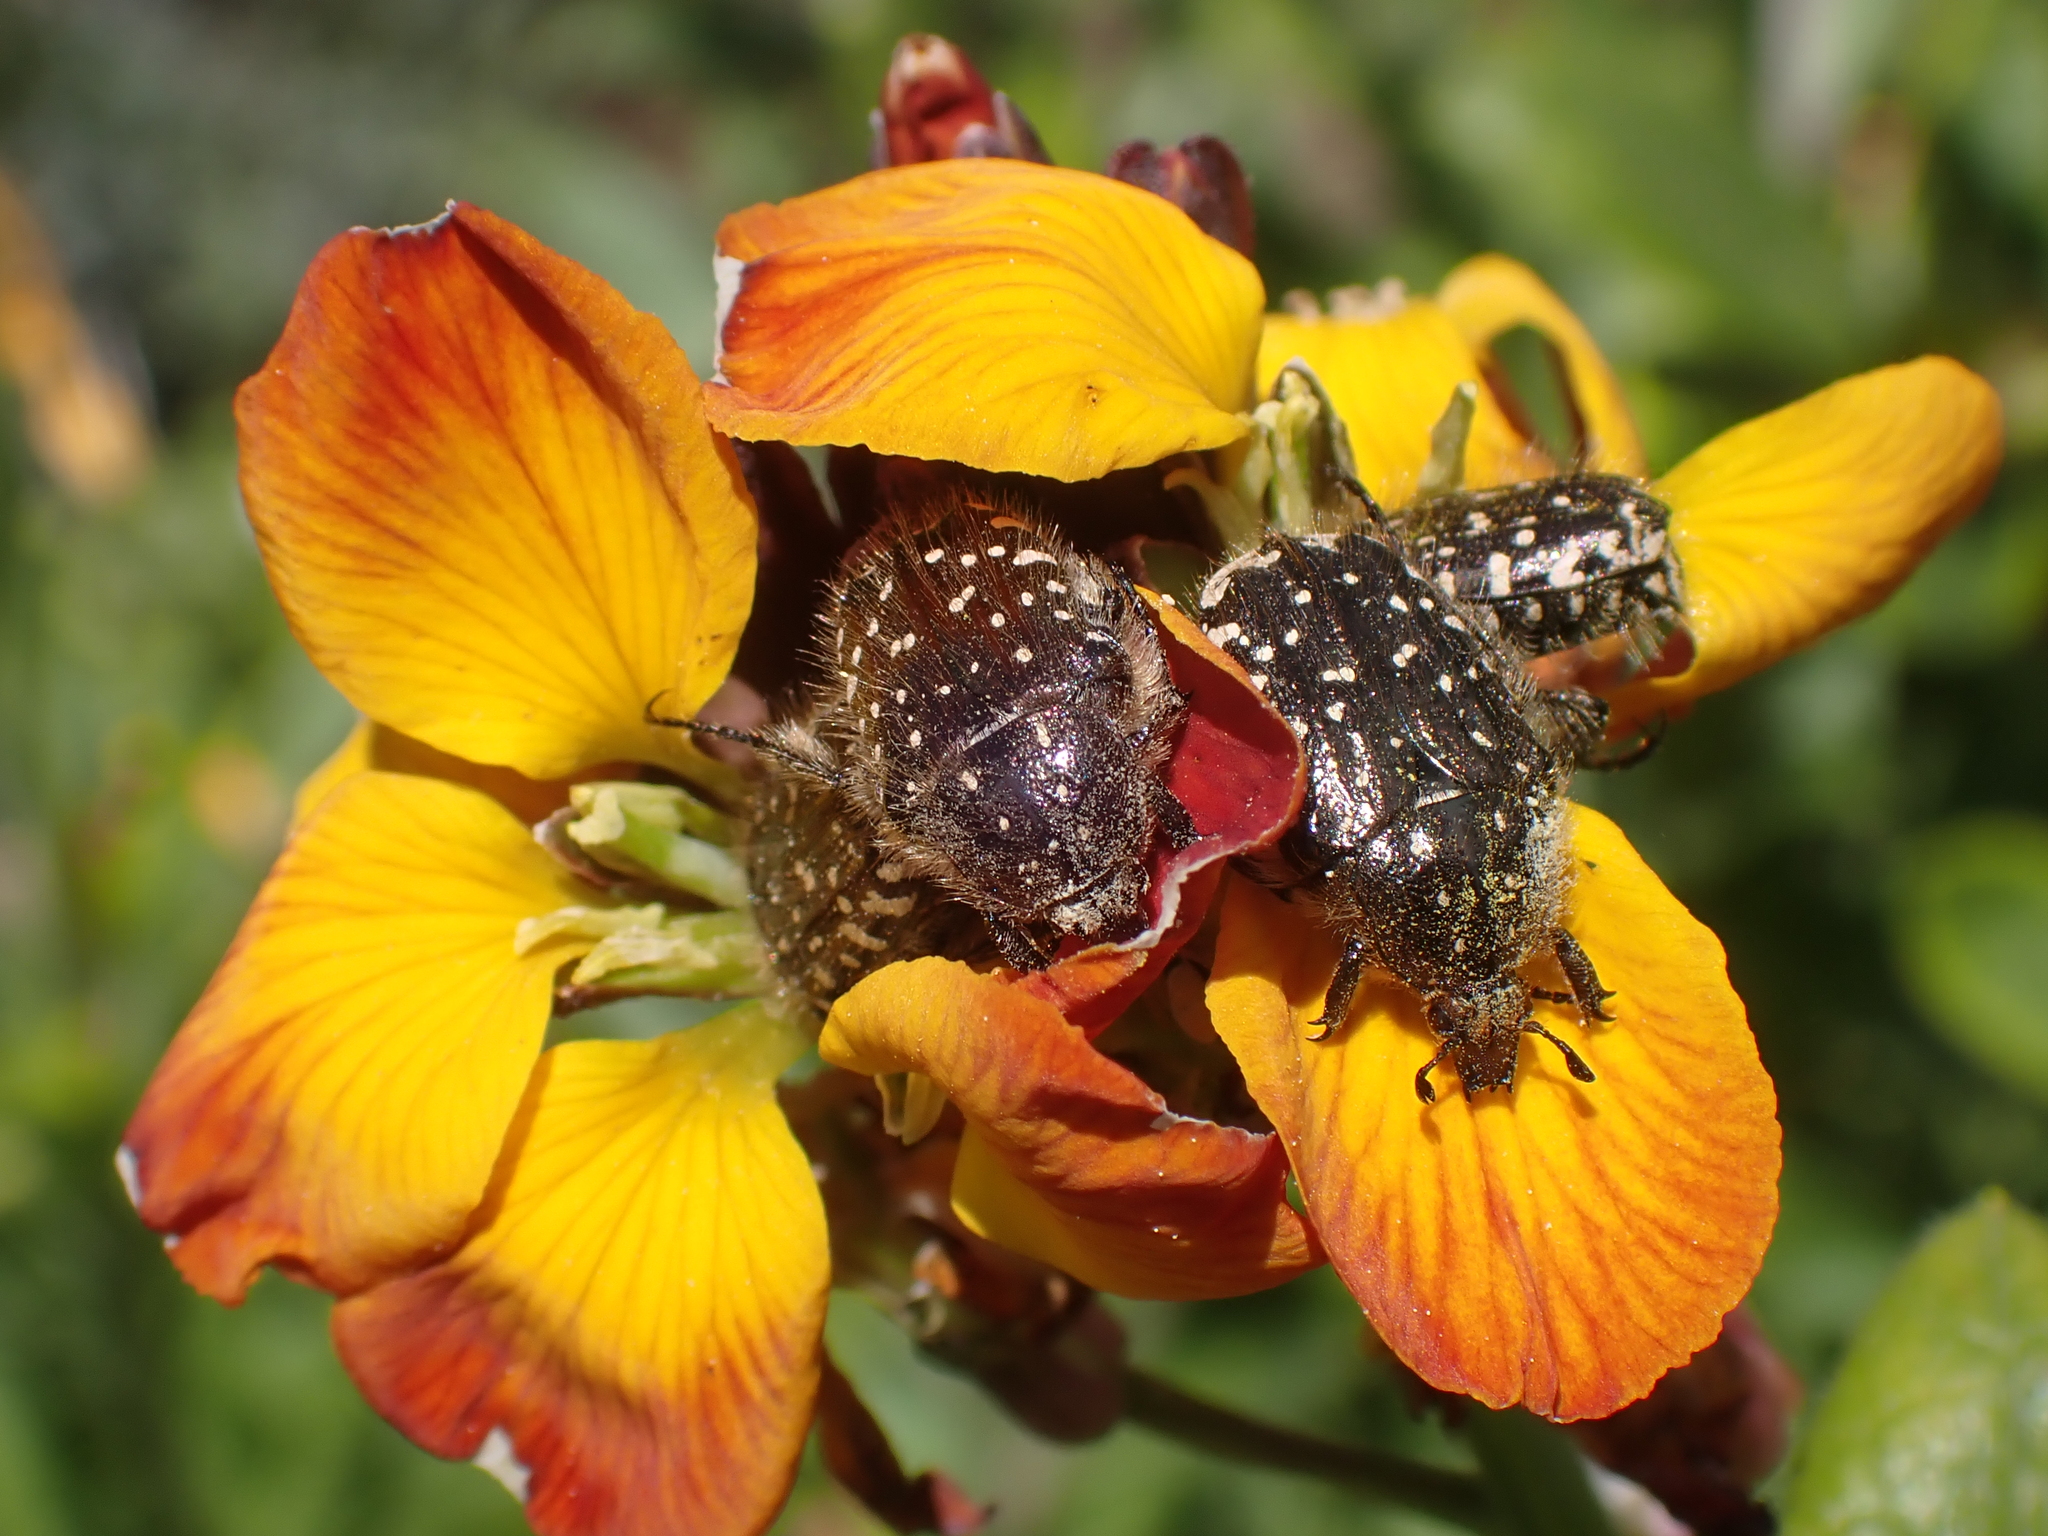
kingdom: Animalia
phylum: Arthropoda
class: Insecta
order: Coleoptera
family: Scarabaeidae
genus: Oxythyrea
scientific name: Oxythyrea funesta
